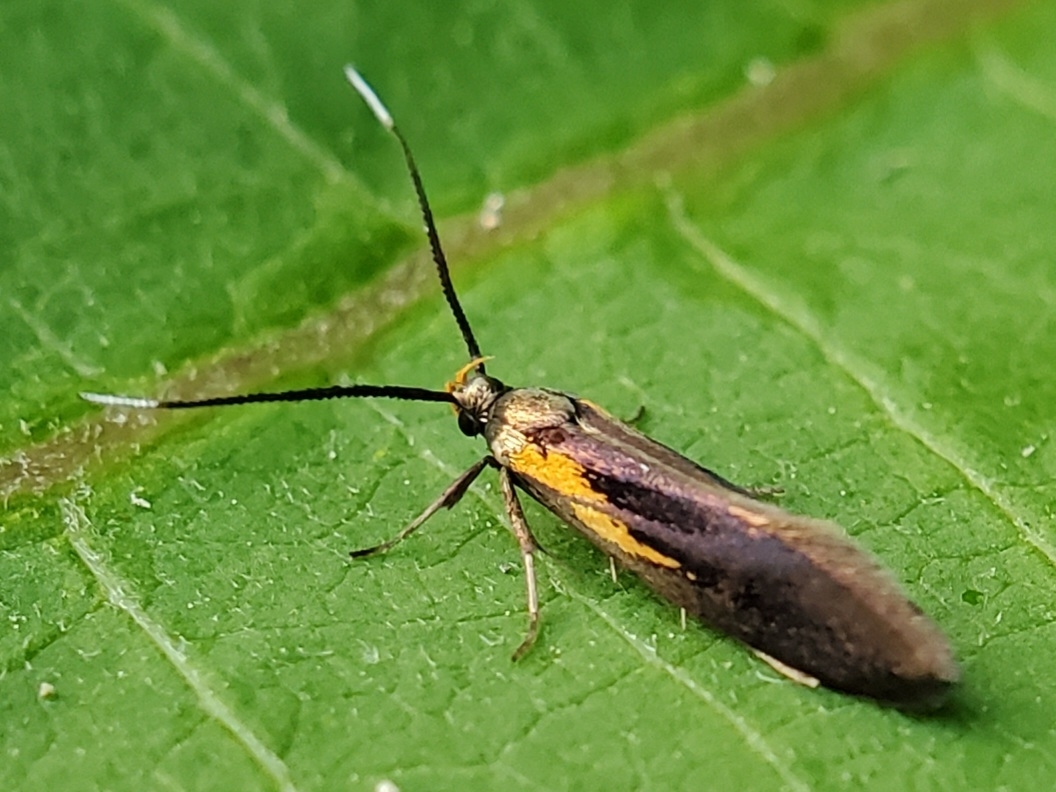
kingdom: Animalia
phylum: Arthropoda
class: Insecta
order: Lepidoptera
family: Oecophoridae
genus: Mathildana
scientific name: Mathildana newmanella
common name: Newman's mathildana moth
